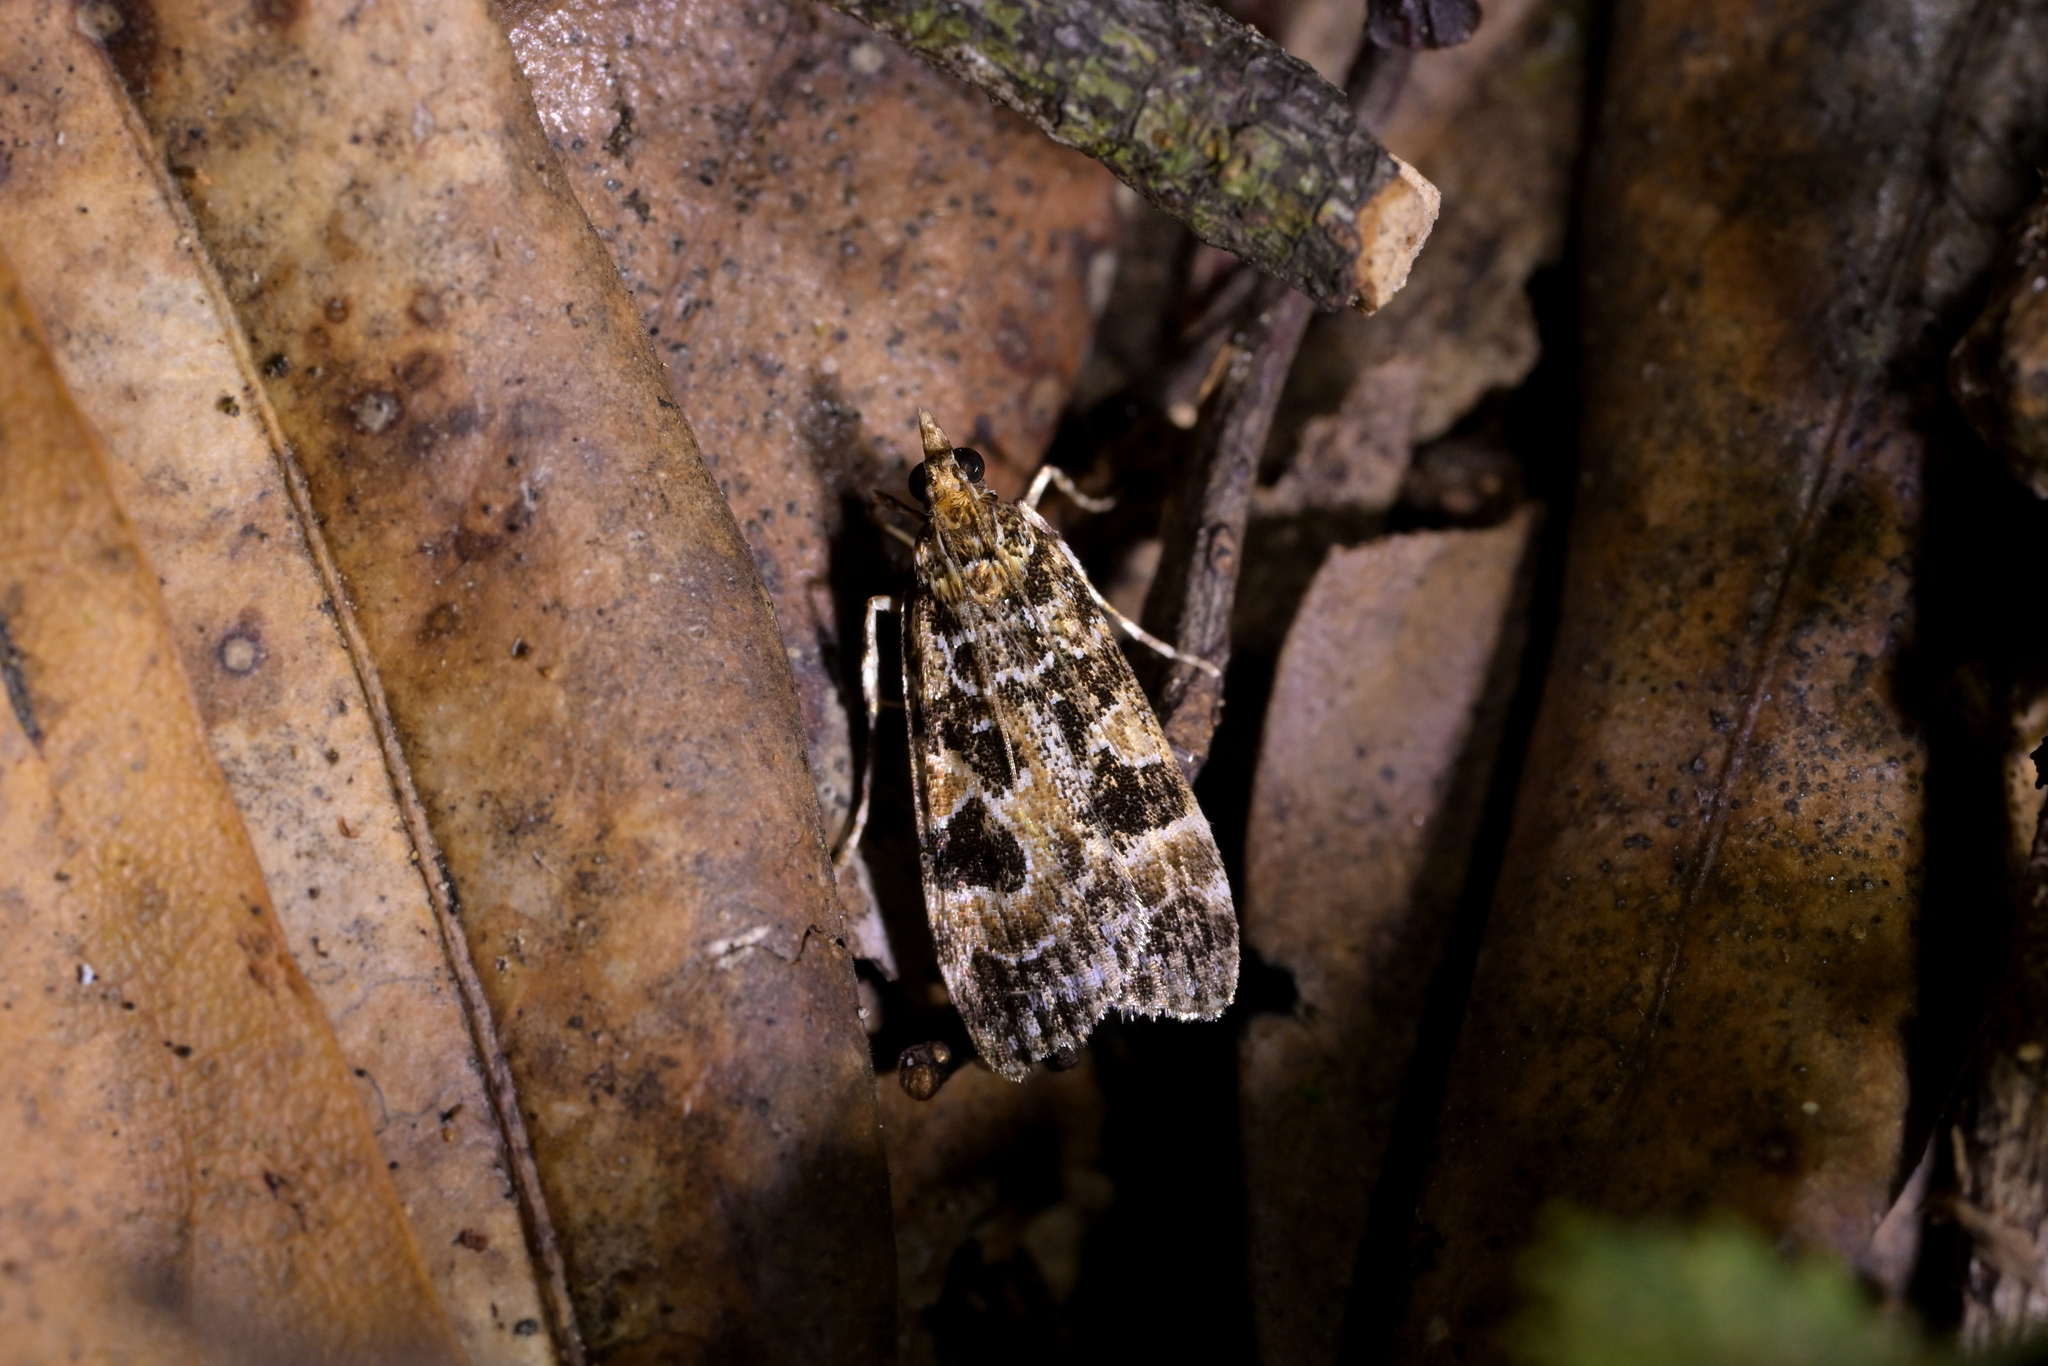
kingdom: Animalia
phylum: Arthropoda
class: Insecta
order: Lepidoptera
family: Crambidae
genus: Scoparia
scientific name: Scoparia ustimacula
